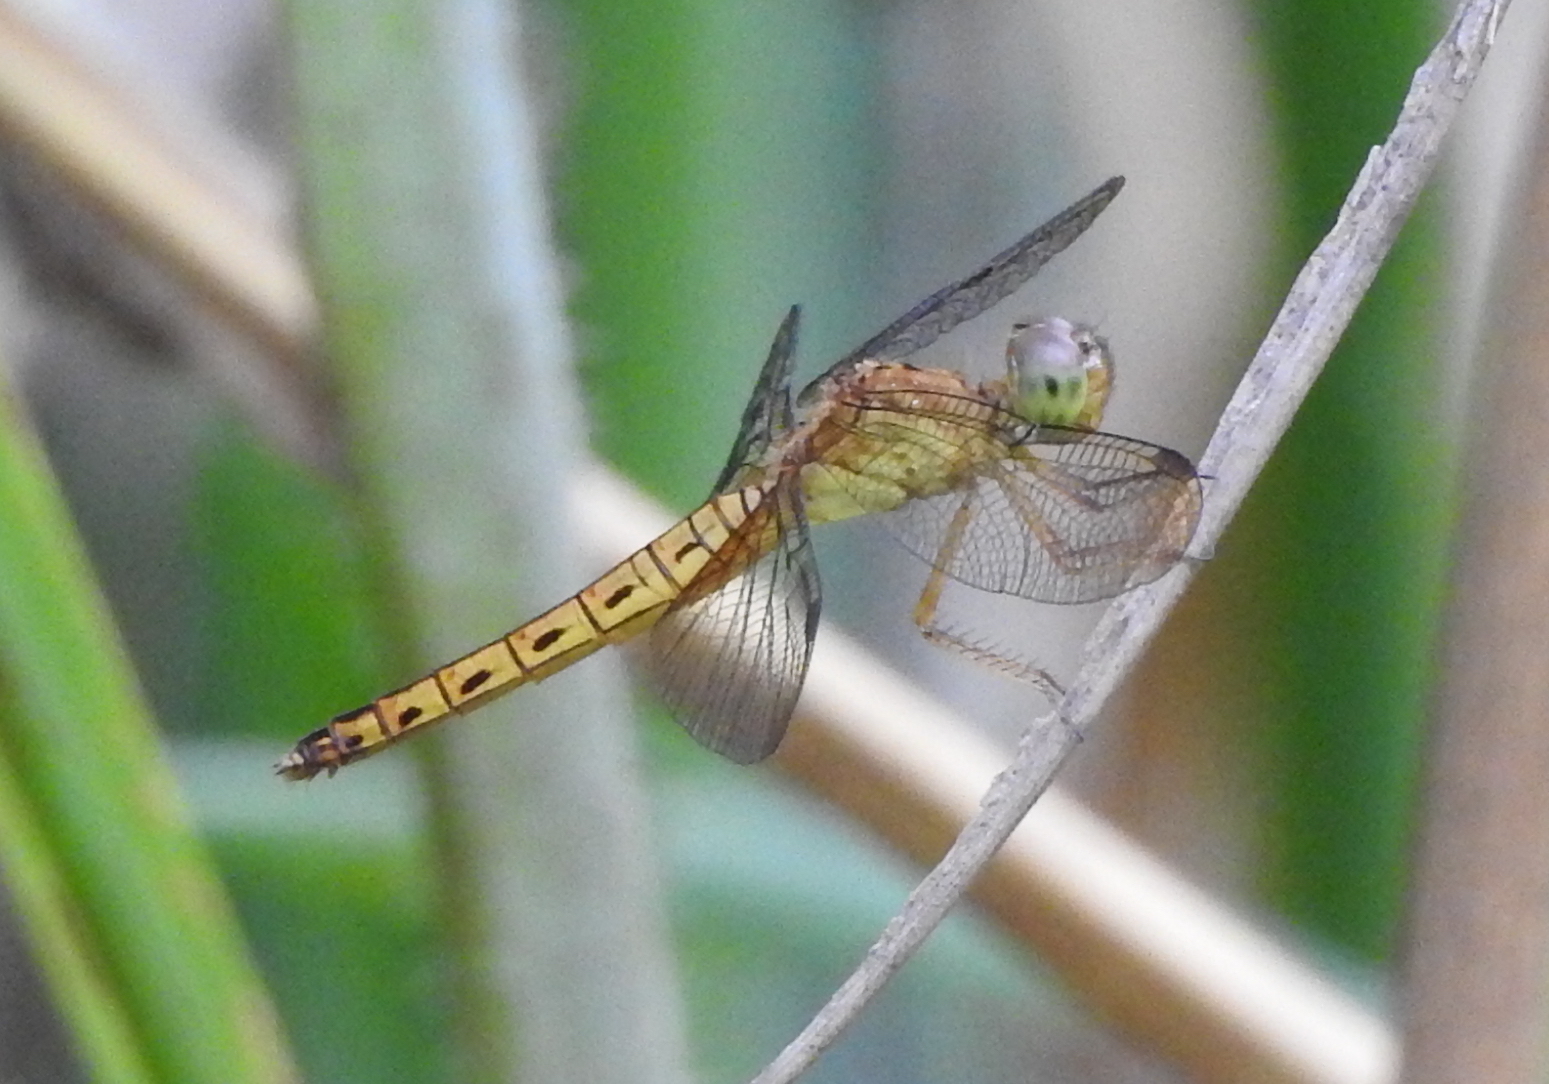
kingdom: Animalia
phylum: Arthropoda
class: Insecta
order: Odonata
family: Libellulidae
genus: Neurothemis
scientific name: Neurothemis fluctuans
